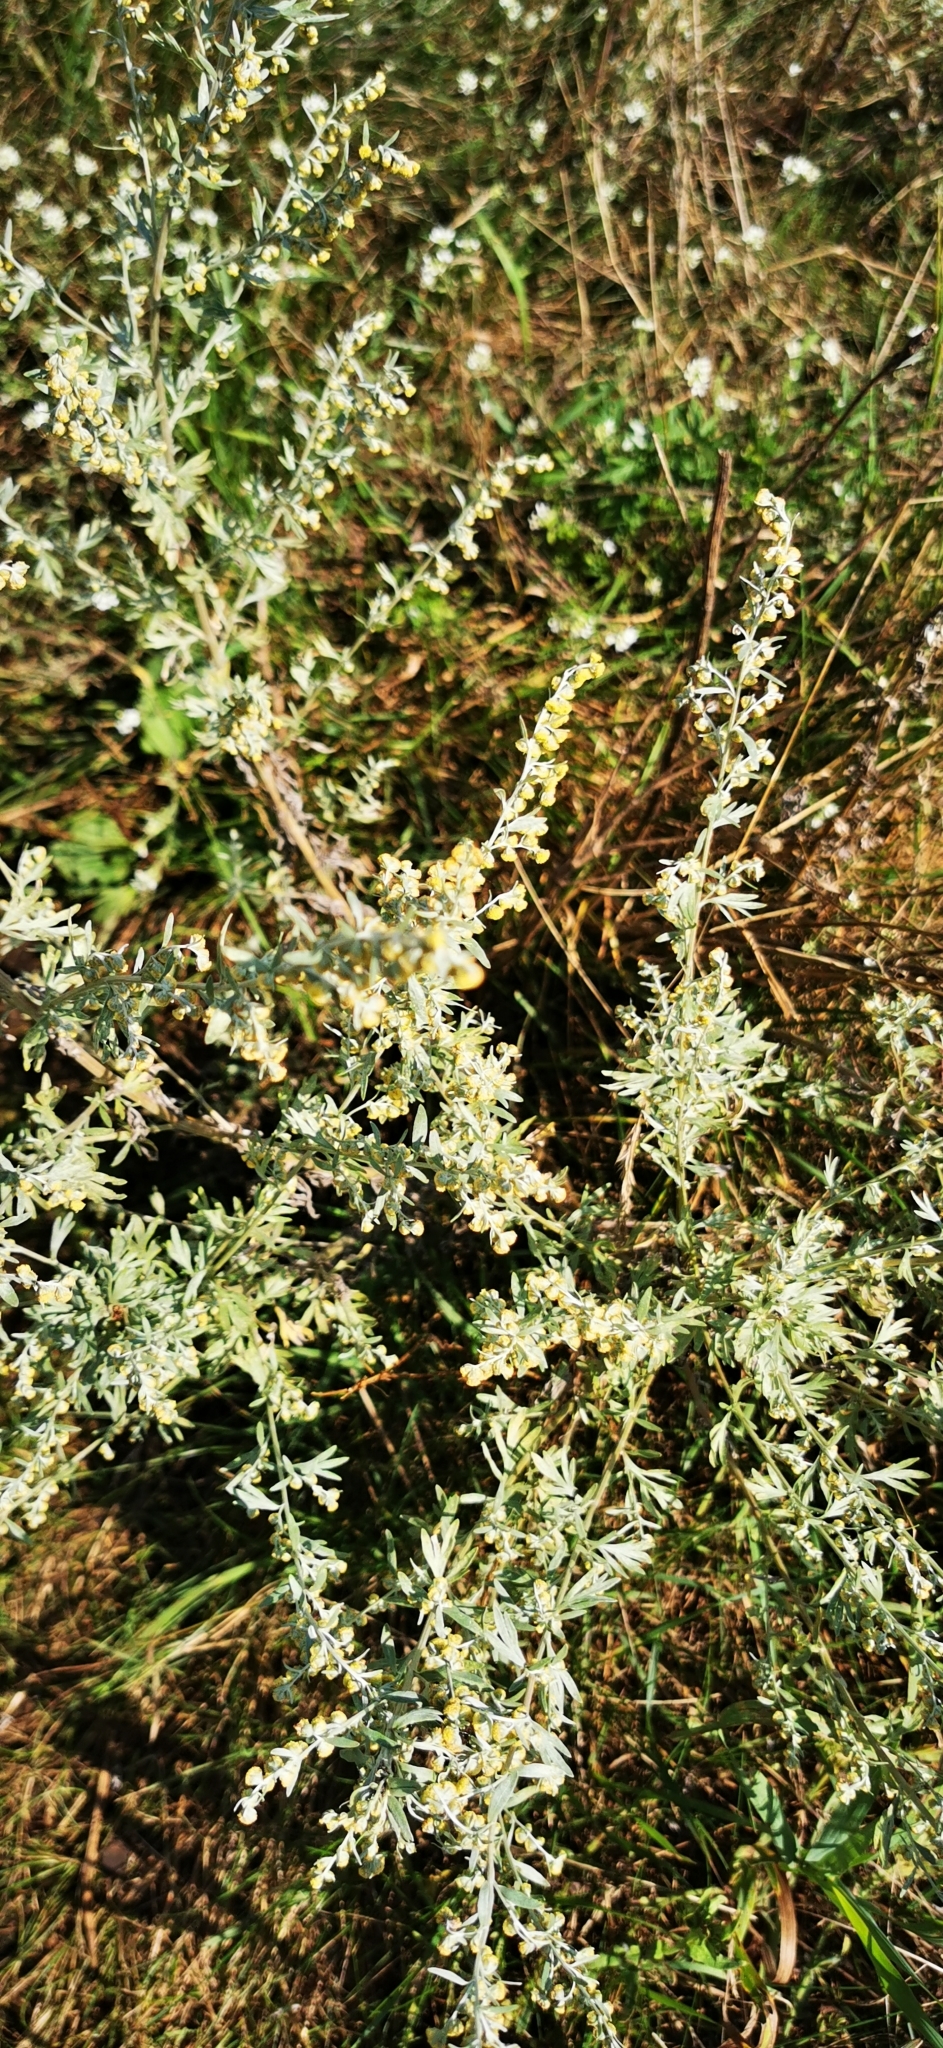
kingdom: Plantae
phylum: Tracheophyta
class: Magnoliopsida
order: Asterales
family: Asteraceae
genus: Artemisia
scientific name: Artemisia absinthium
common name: Wormwood
